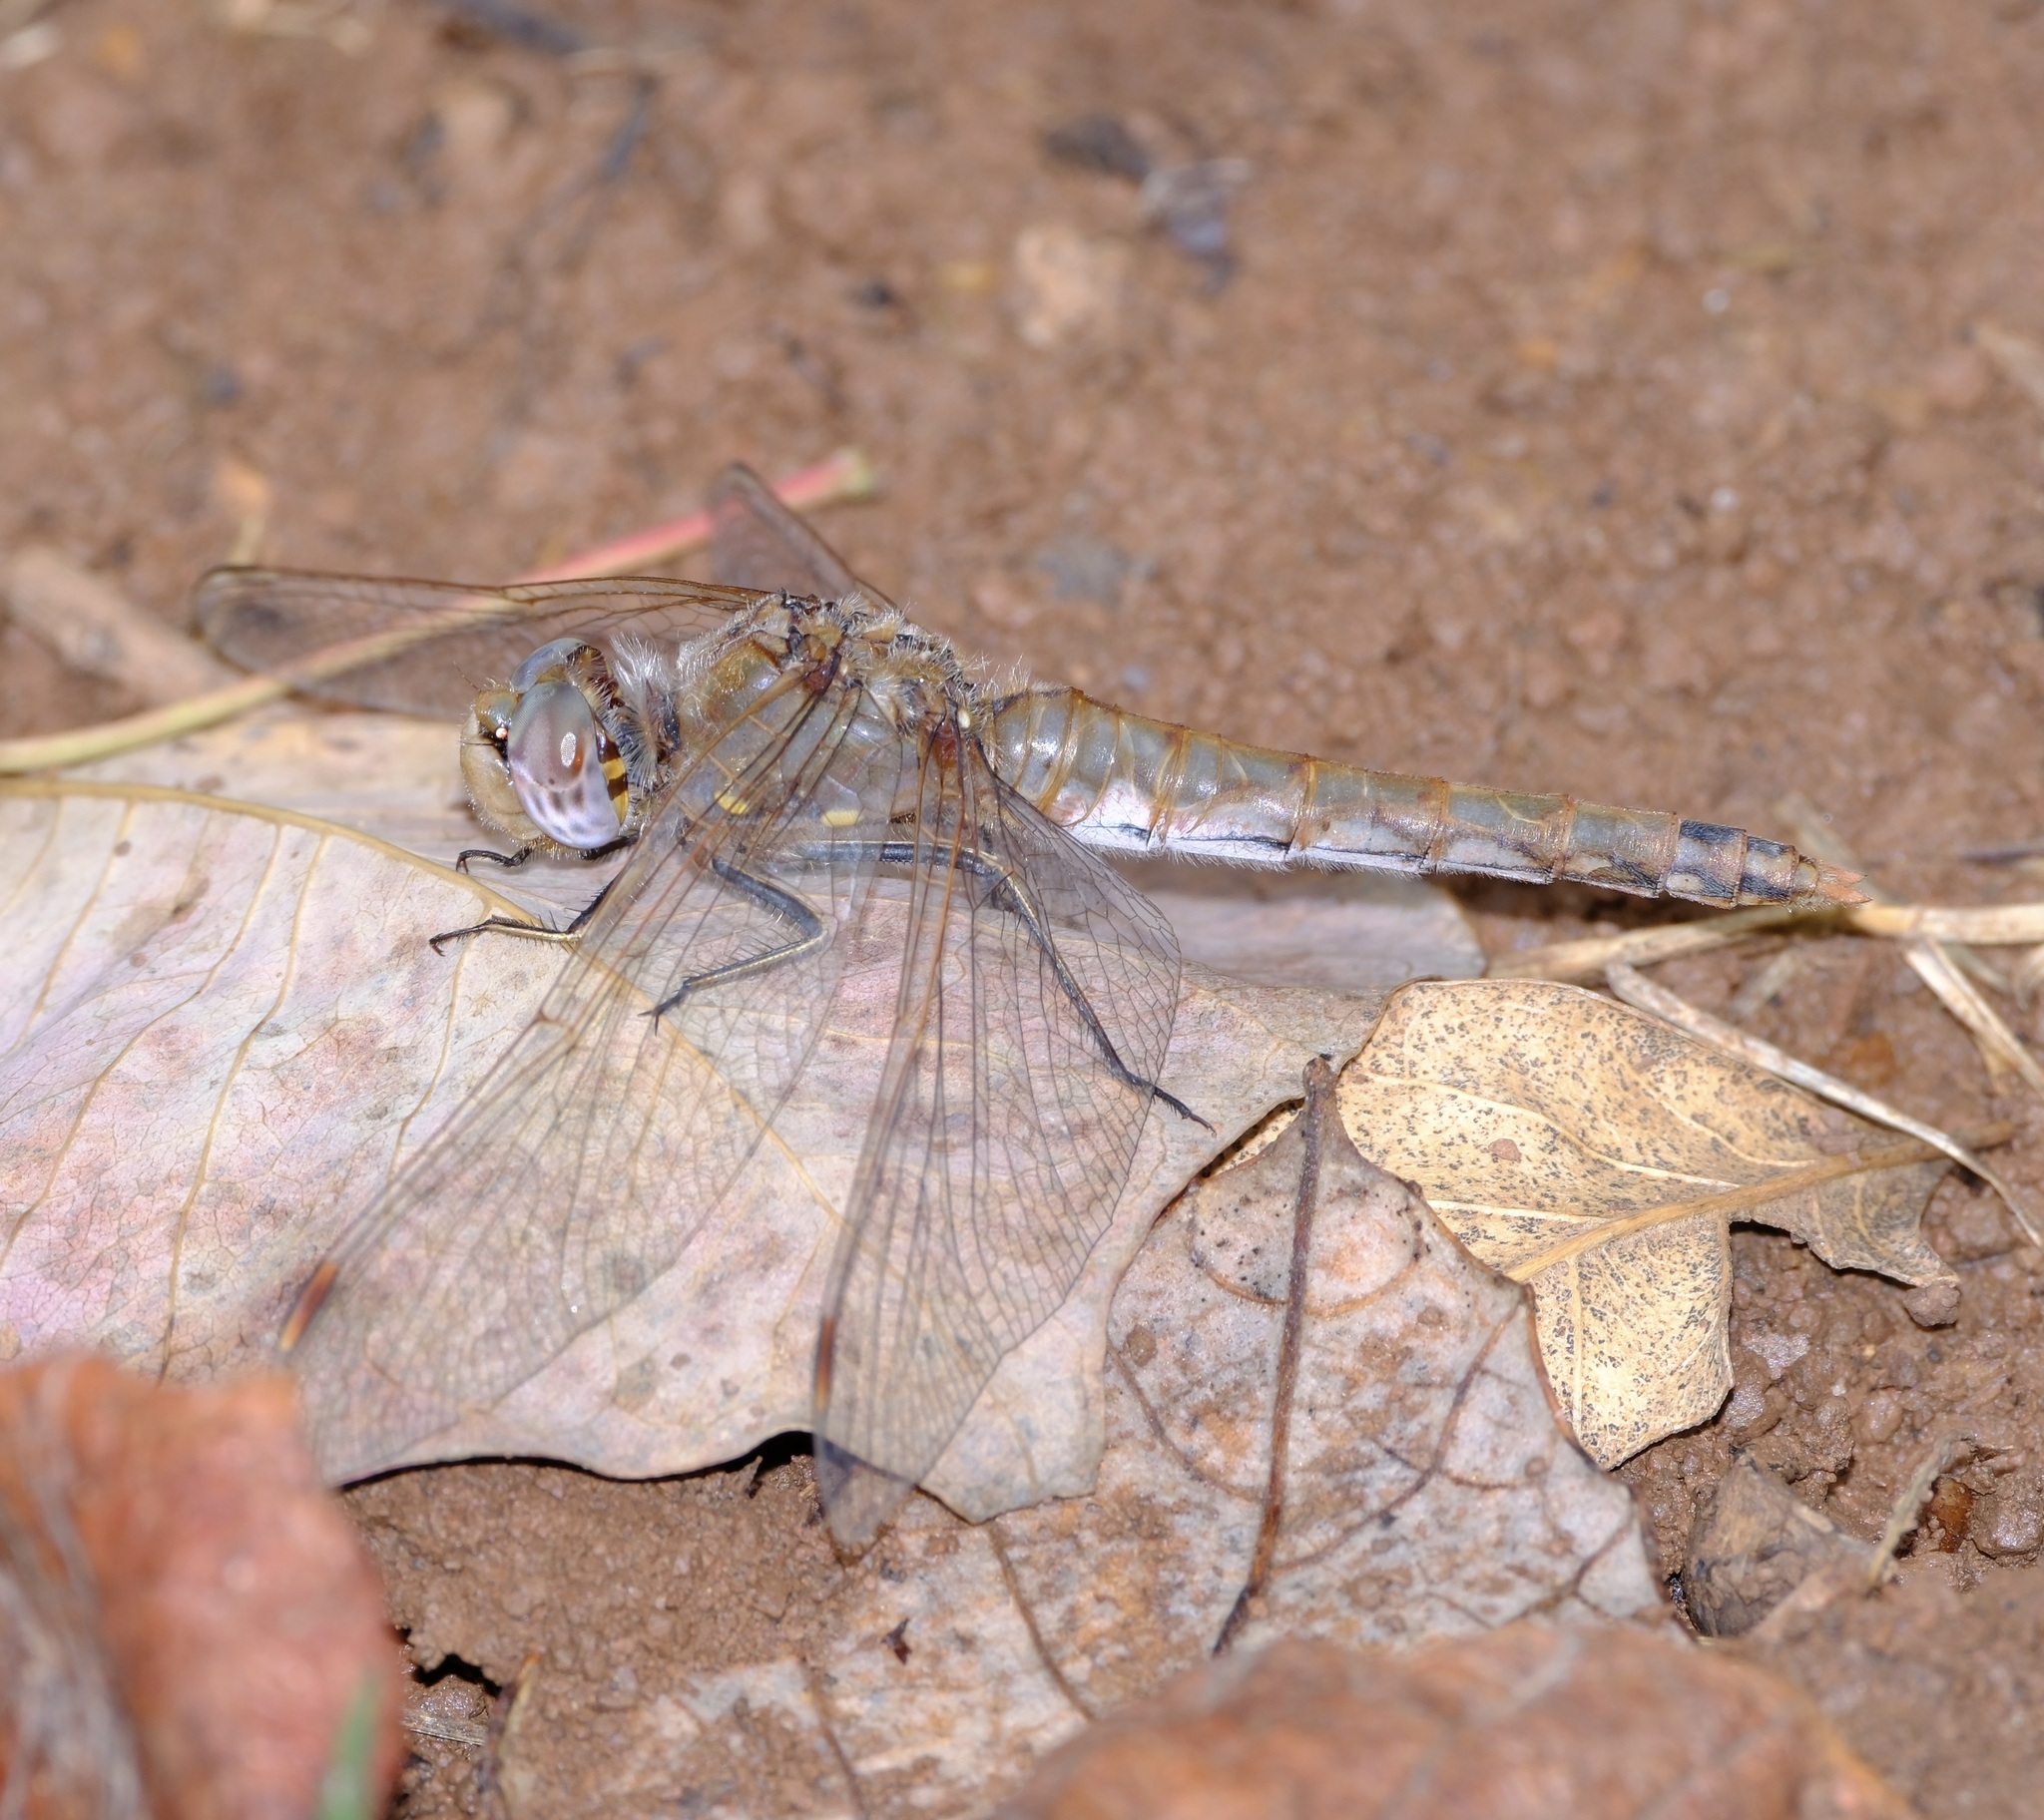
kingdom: Animalia
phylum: Arthropoda
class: Insecta
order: Odonata
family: Libellulidae
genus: Sympetrum
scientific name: Sympetrum corruptum
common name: Variegated meadowhawk
